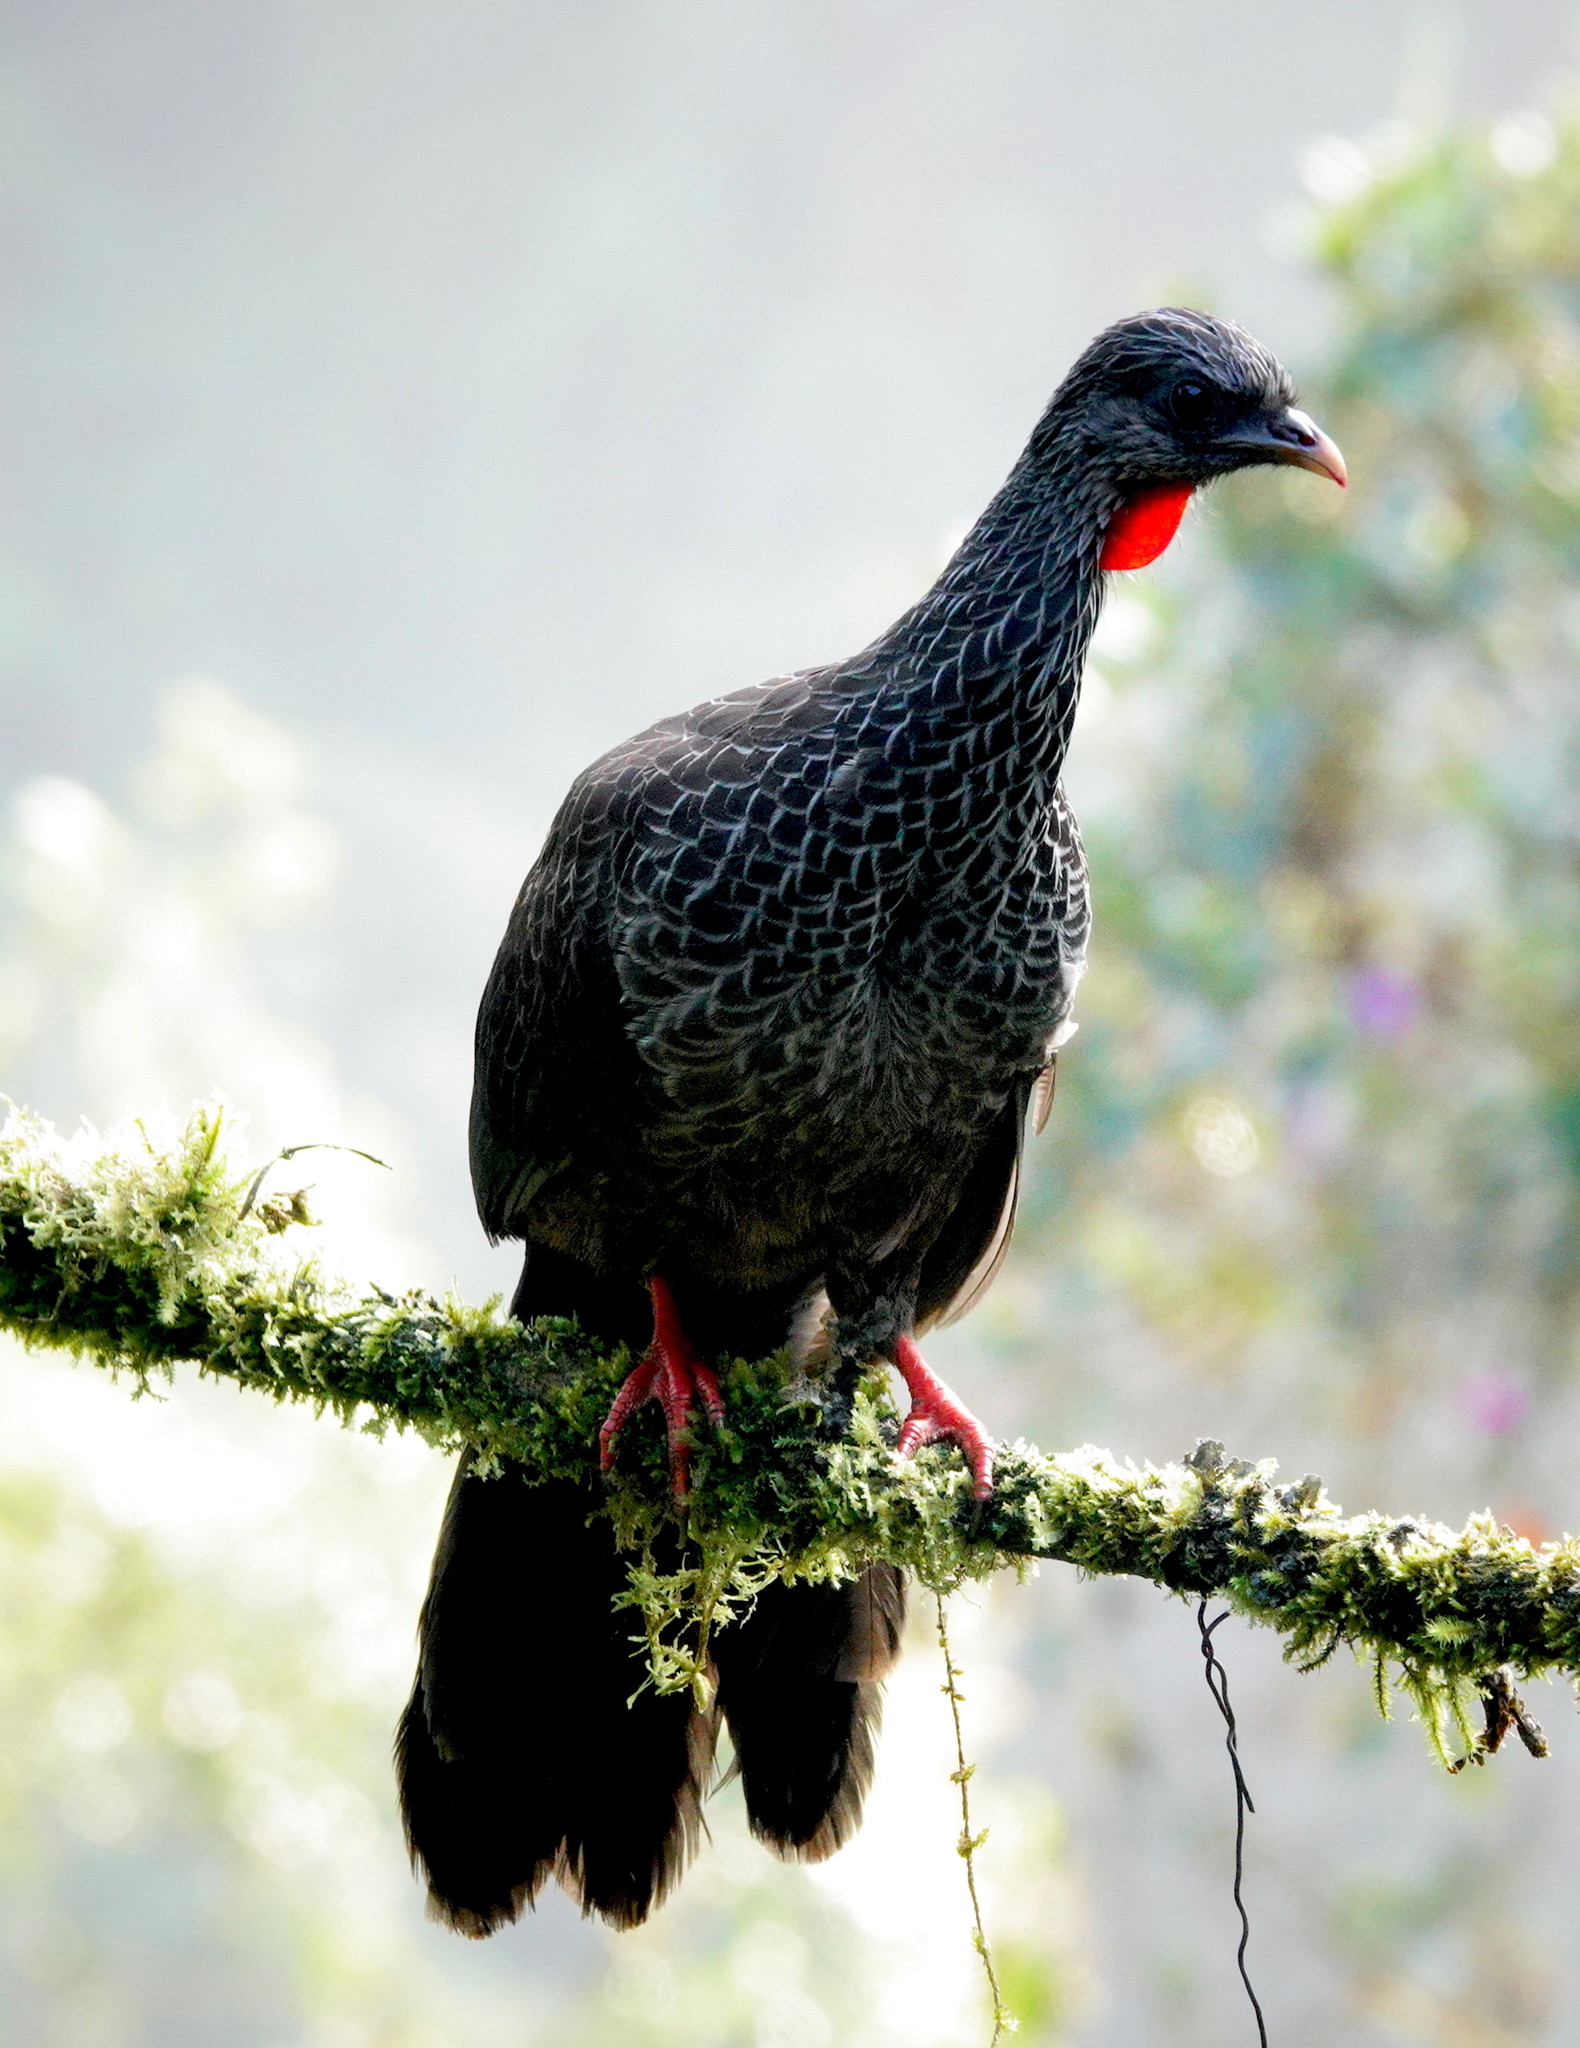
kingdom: Animalia
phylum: Chordata
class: Aves
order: Galliformes
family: Cracidae
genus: Penelope
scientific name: Penelope montagnii
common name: Andean guan
